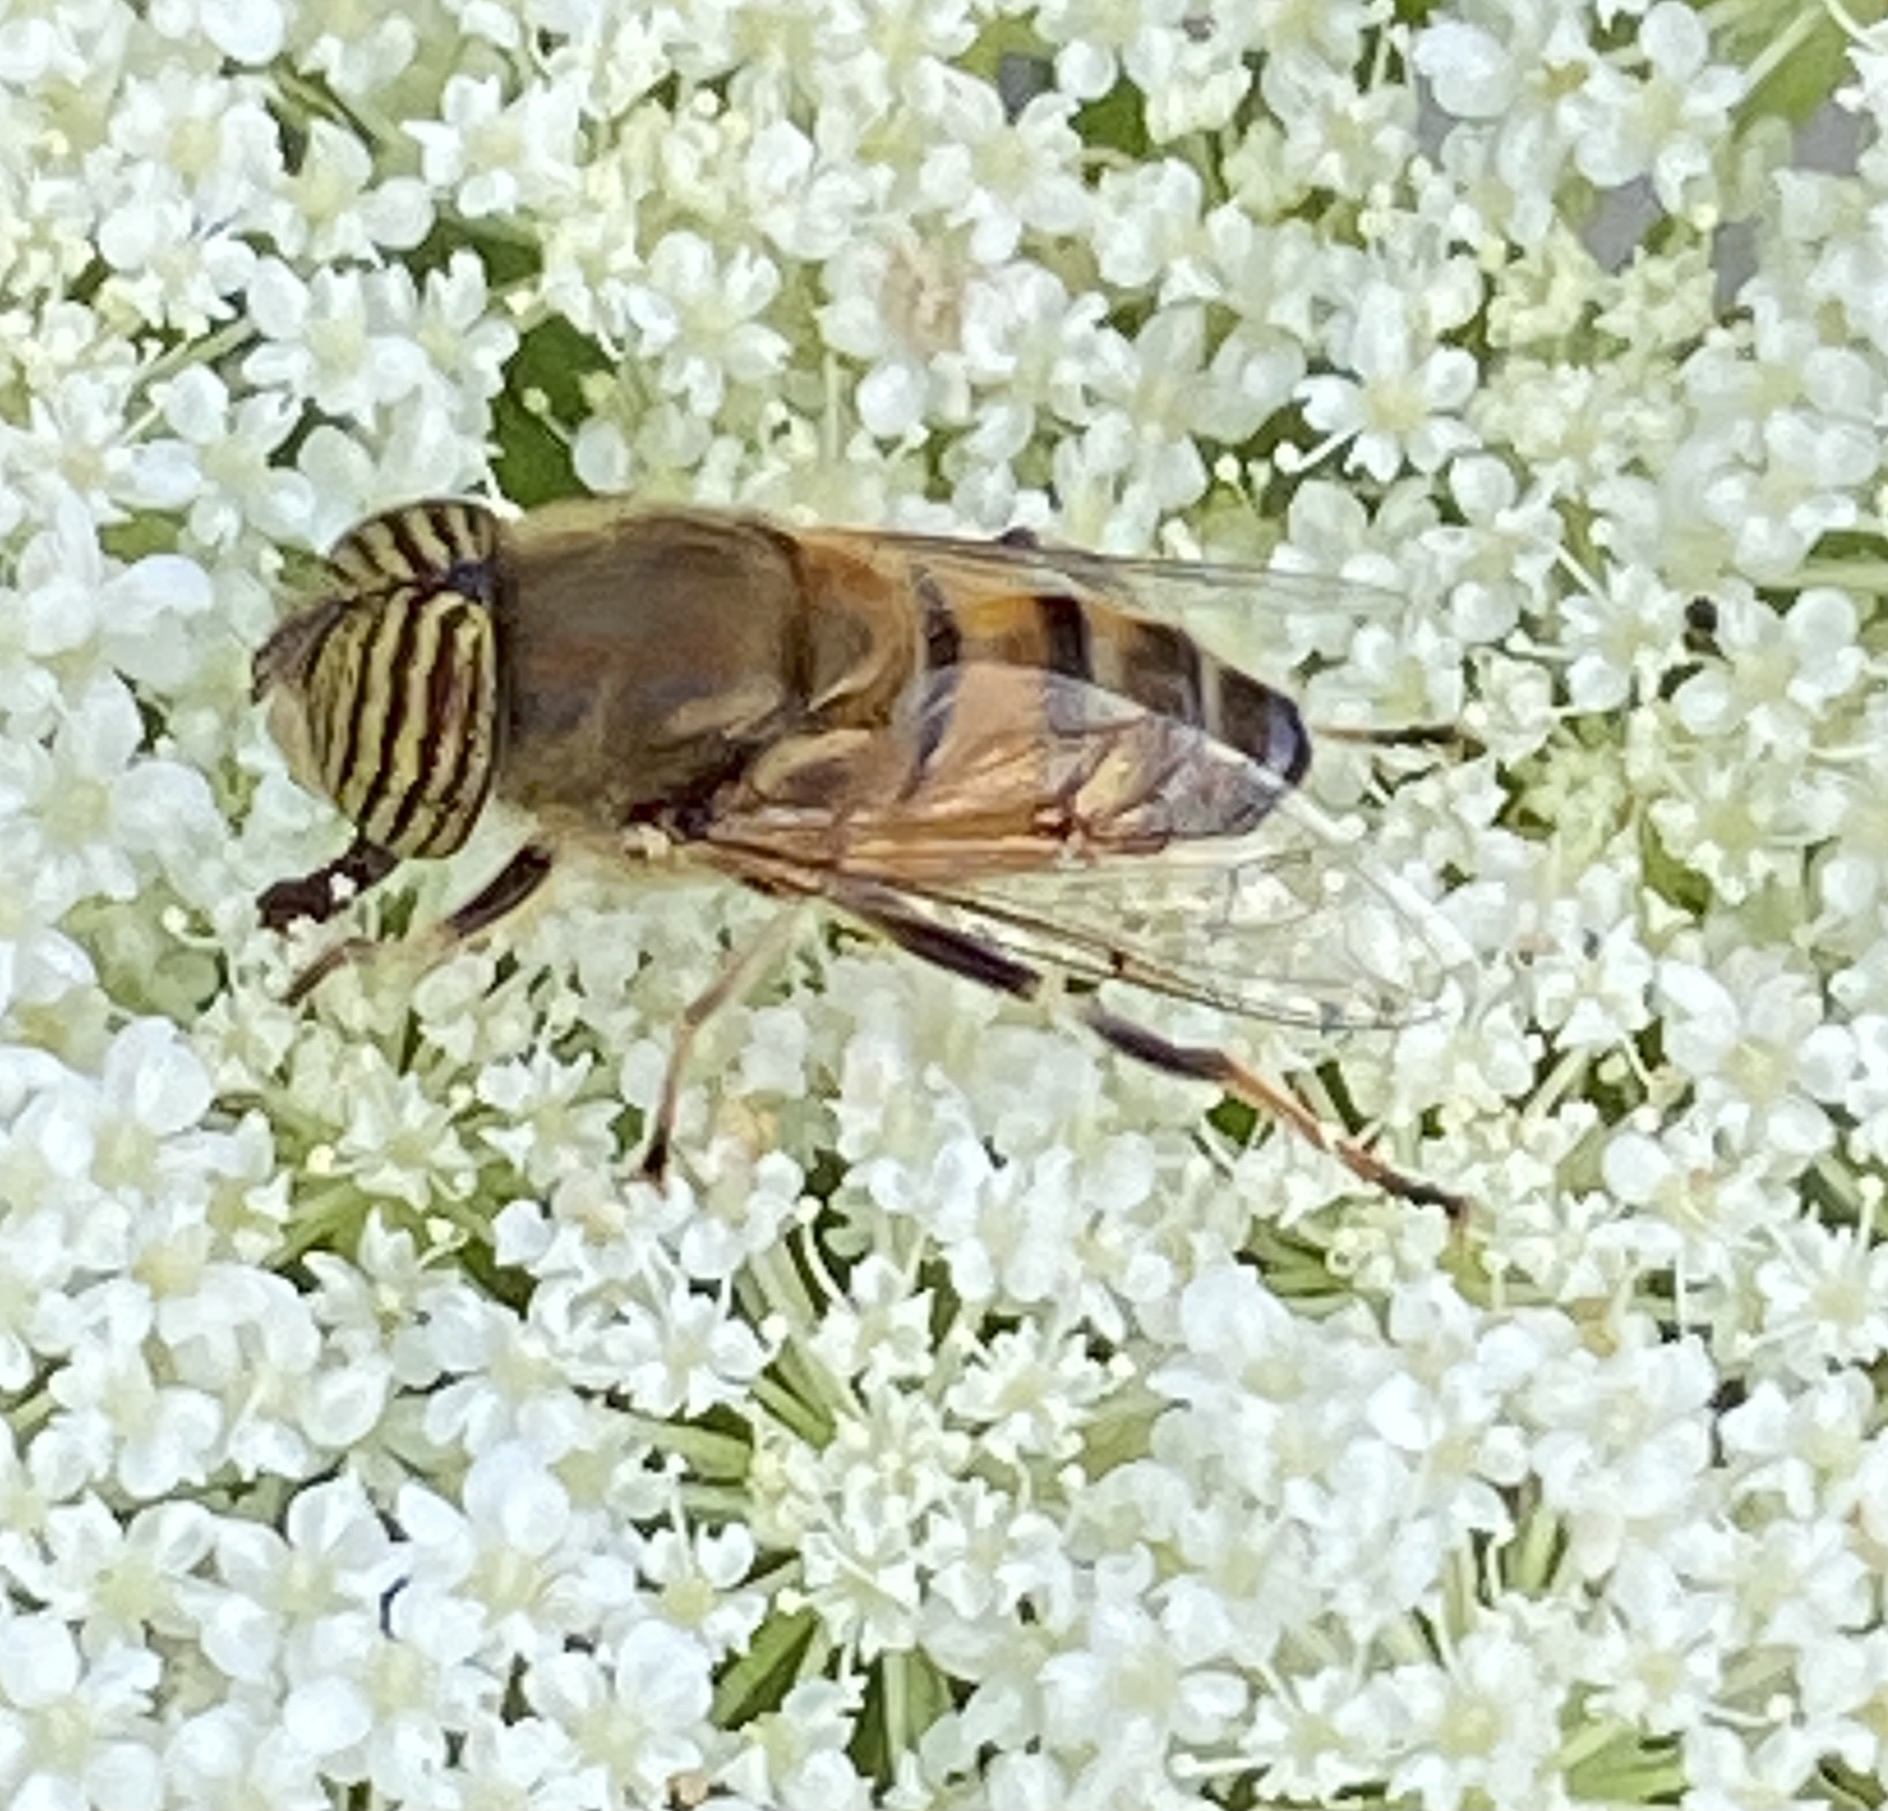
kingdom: Animalia
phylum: Arthropoda
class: Insecta
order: Diptera
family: Syrphidae
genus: Eristalinus
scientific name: Eristalinus taeniops
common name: Syrphid fly
